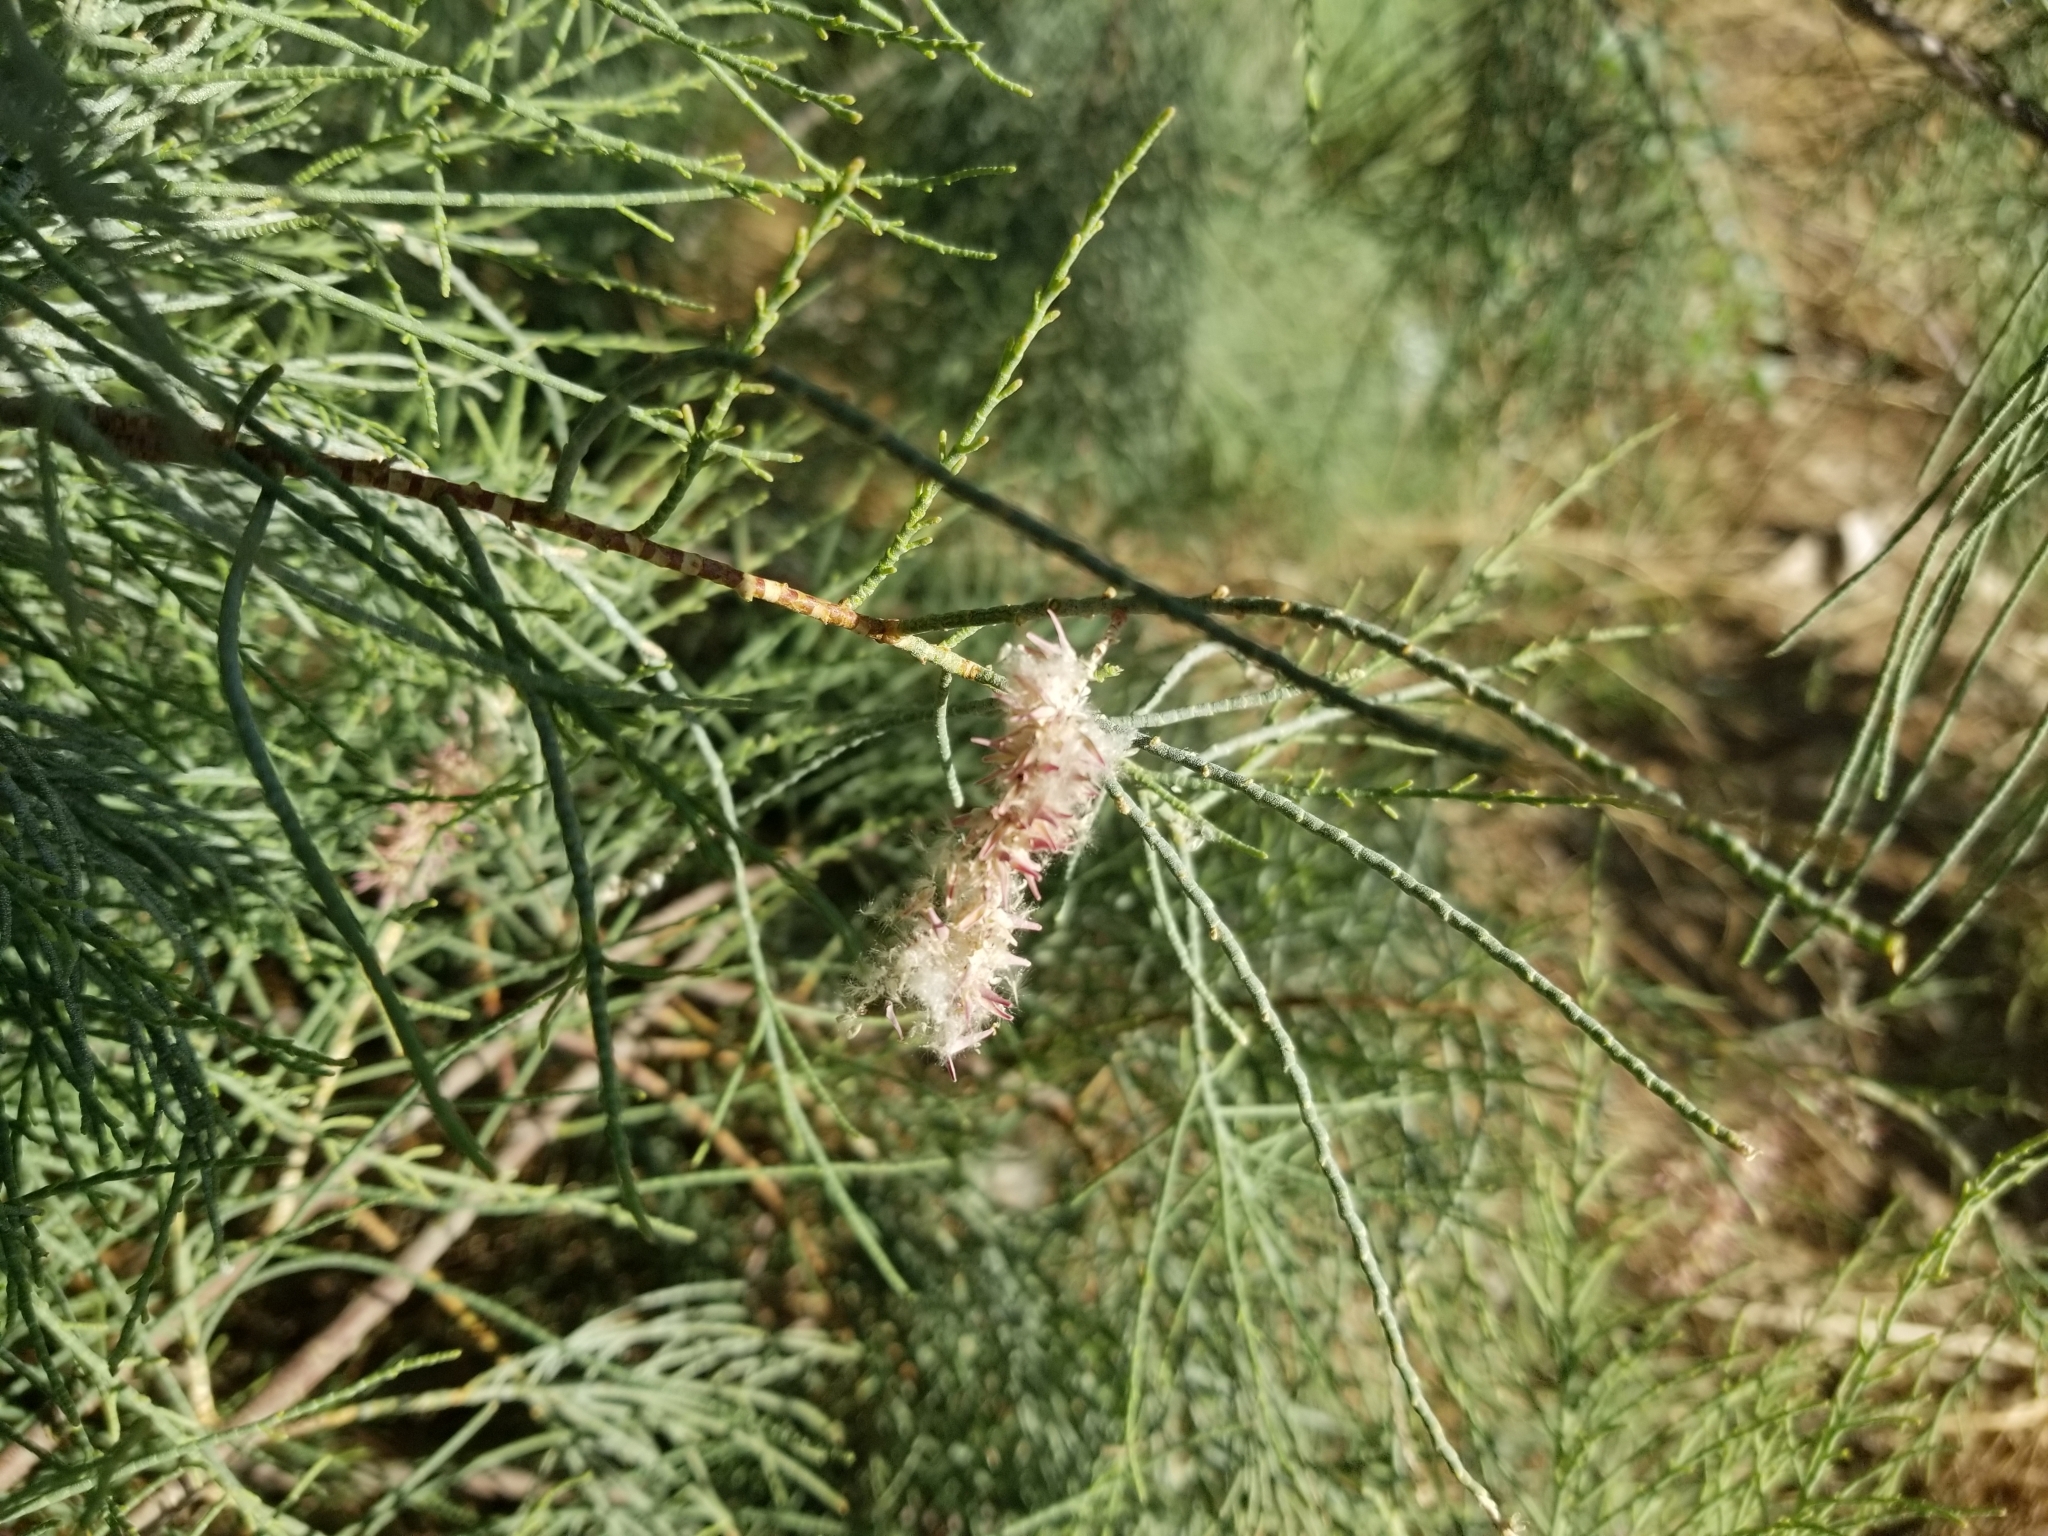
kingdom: Plantae
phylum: Tracheophyta
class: Magnoliopsida
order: Caryophyllales
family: Tamaricaceae
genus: Tamarix
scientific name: Tamarix aphylla
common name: Athel tamarisk
